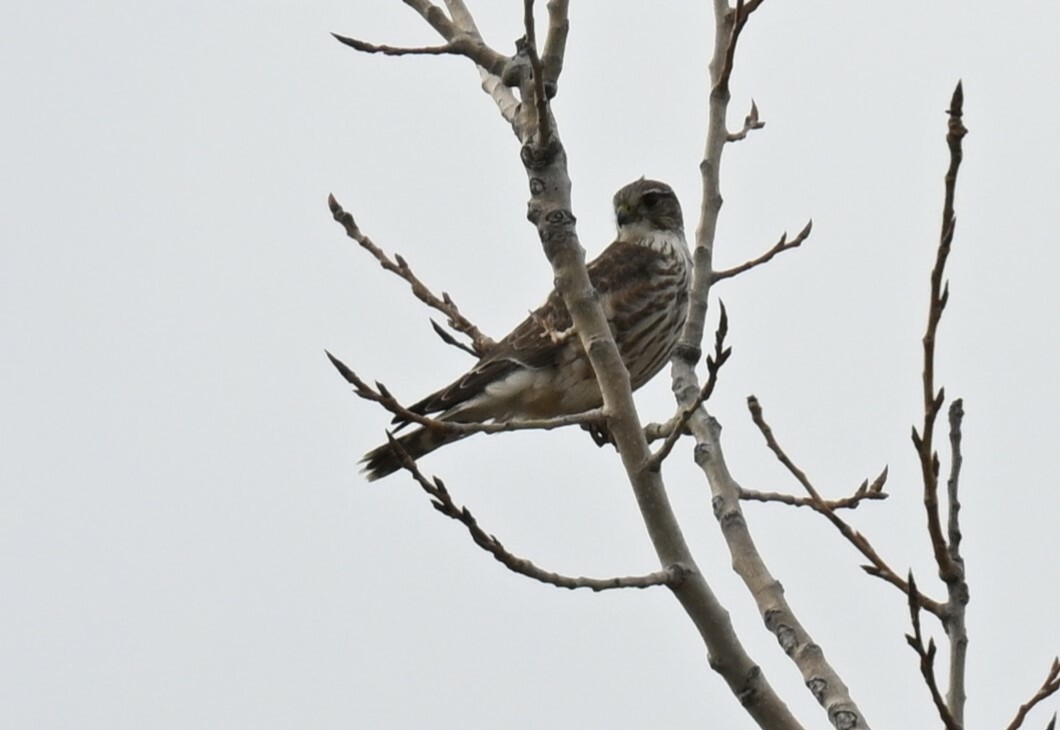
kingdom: Animalia
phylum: Chordata
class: Aves
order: Falconiformes
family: Falconidae
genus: Falco
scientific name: Falco columbarius
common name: Merlin
